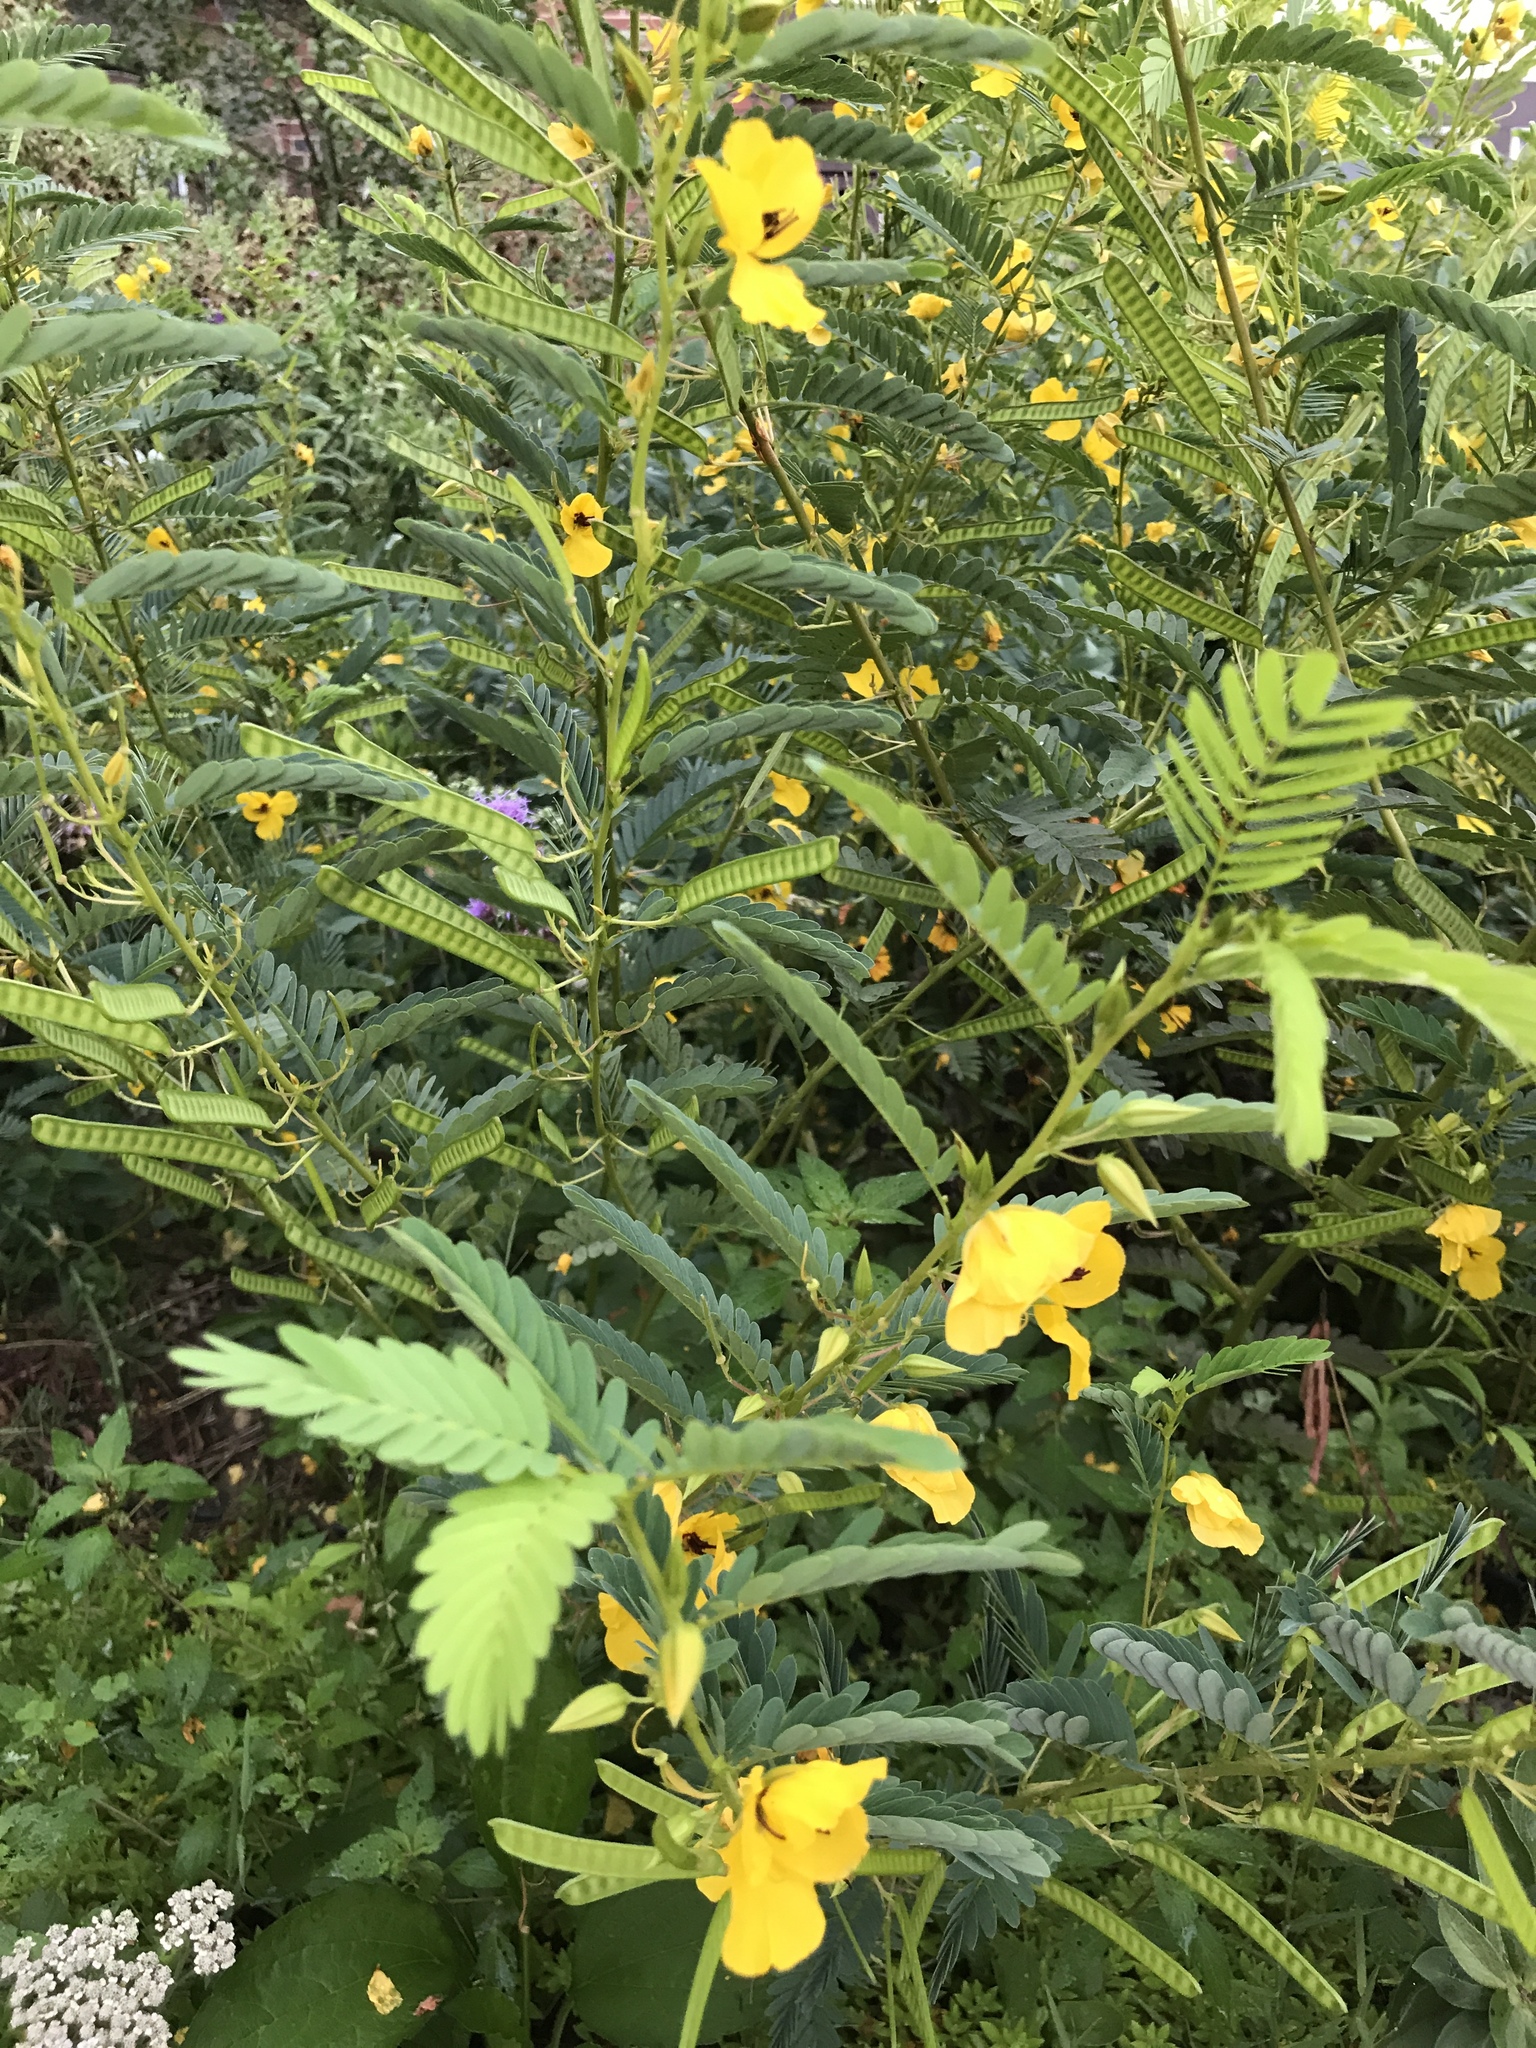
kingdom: Plantae
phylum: Tracheophyta
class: Magnoliopsida
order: Fabales
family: Fabaceae
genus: Chamaecrista
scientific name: Chamaecrista fasciculata
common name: Golden cassia
